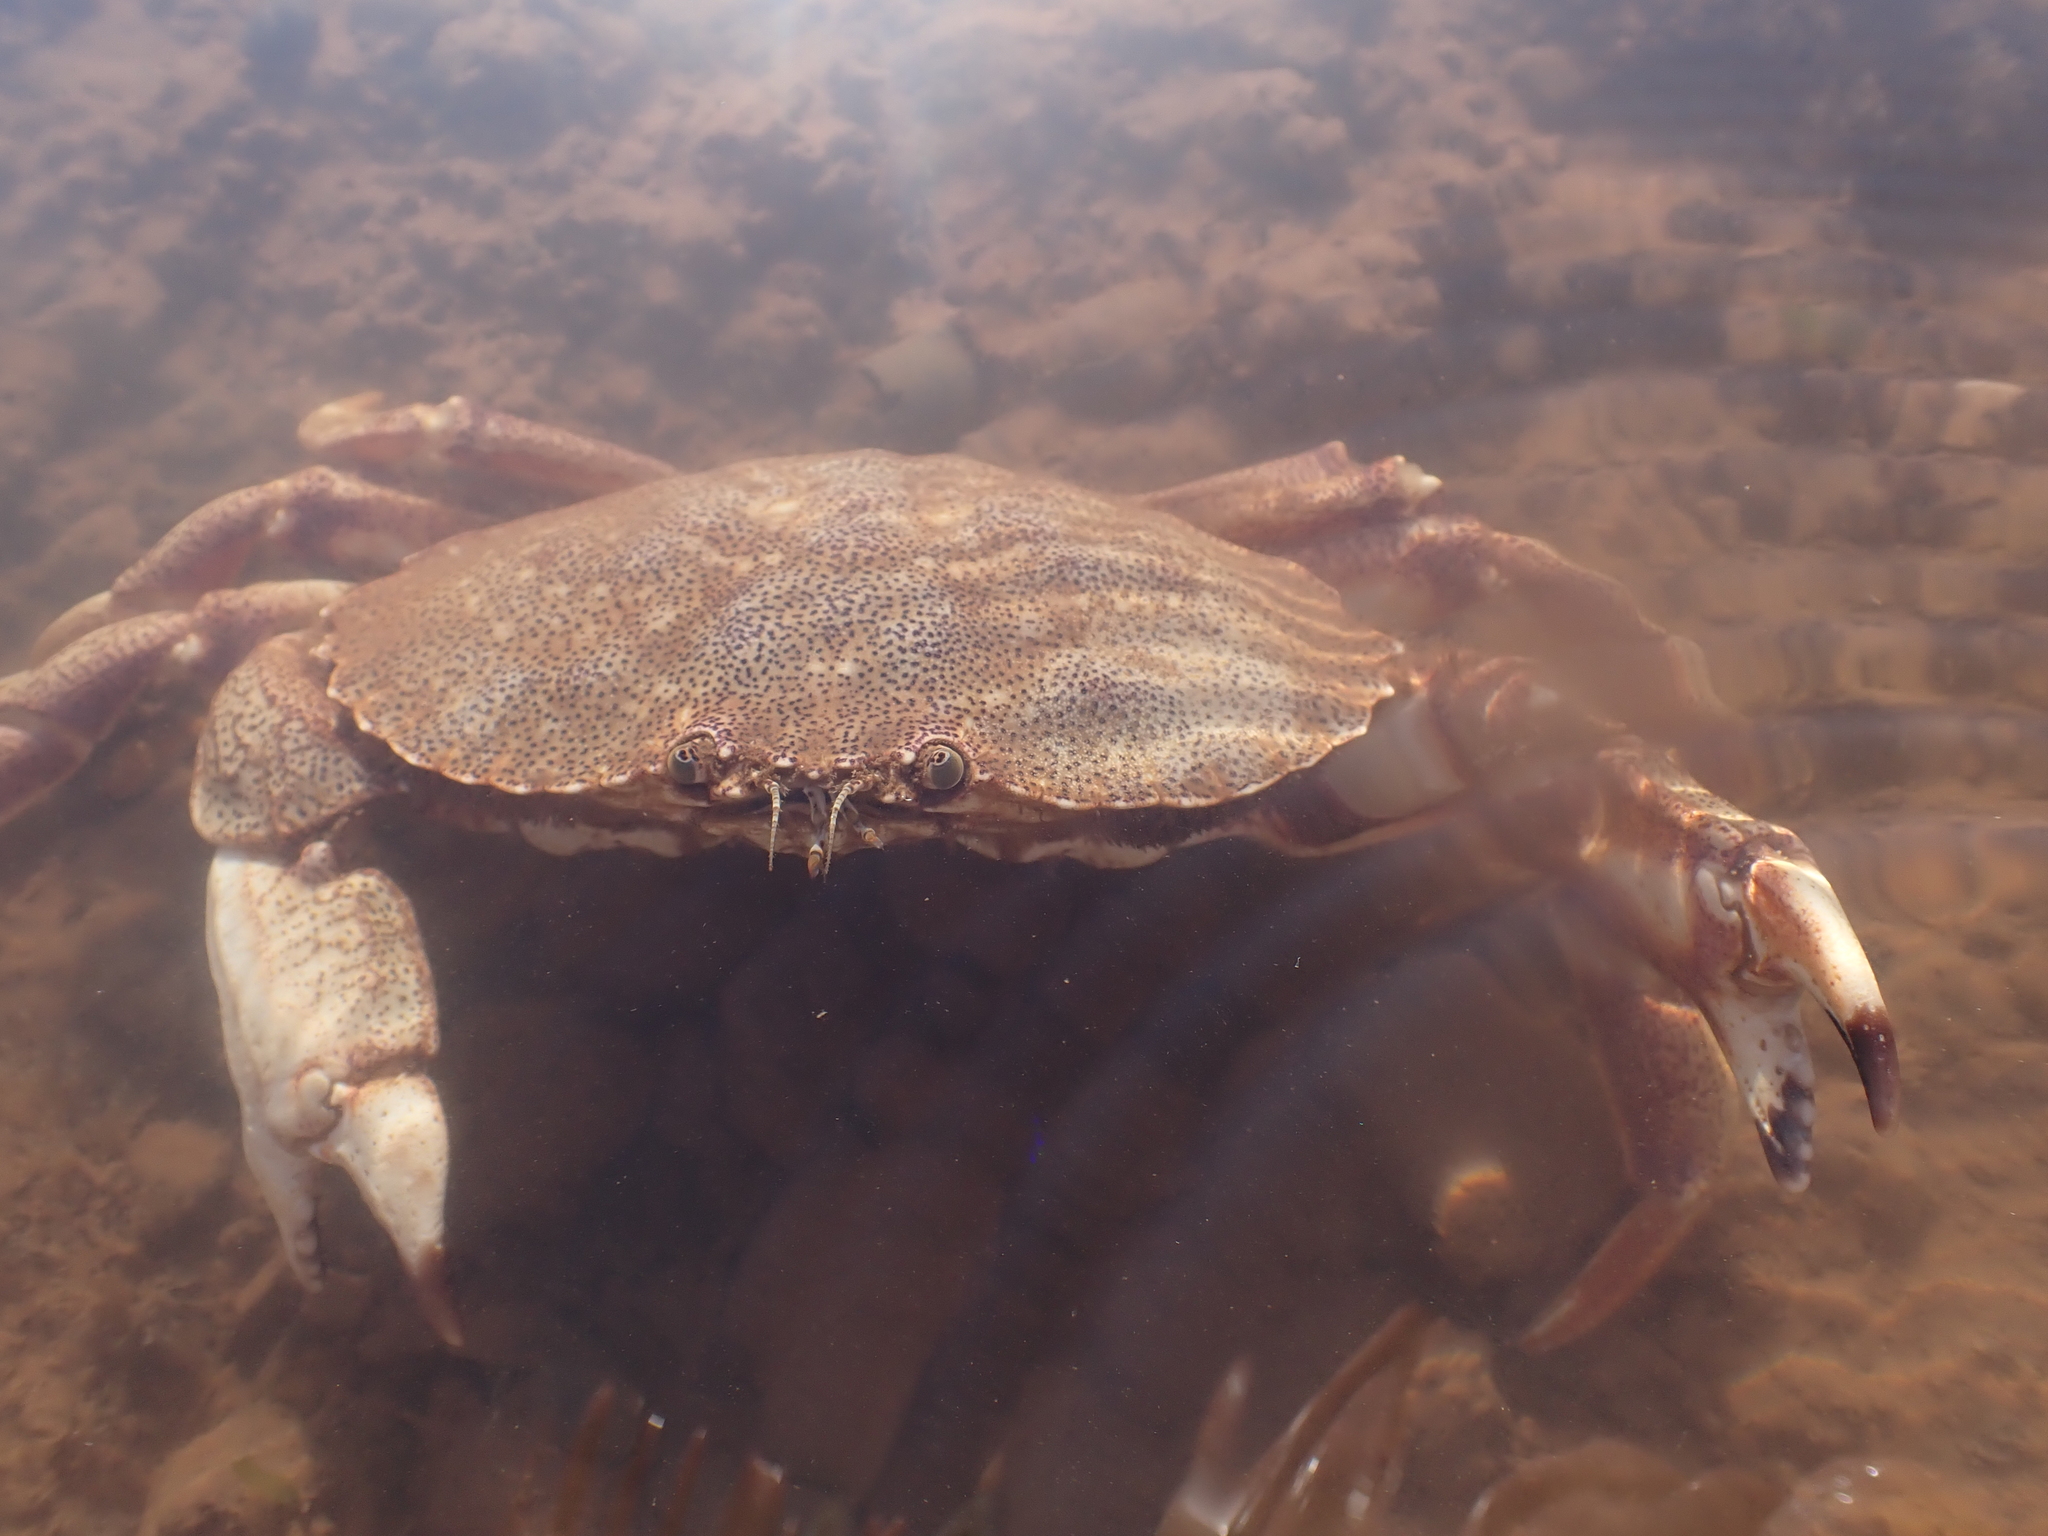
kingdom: Animalia
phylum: Arthropoda
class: Malacostraca
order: Decapoda
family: Cancridae
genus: Cancer
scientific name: Cancer irroratus
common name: Atlantic rock crab
